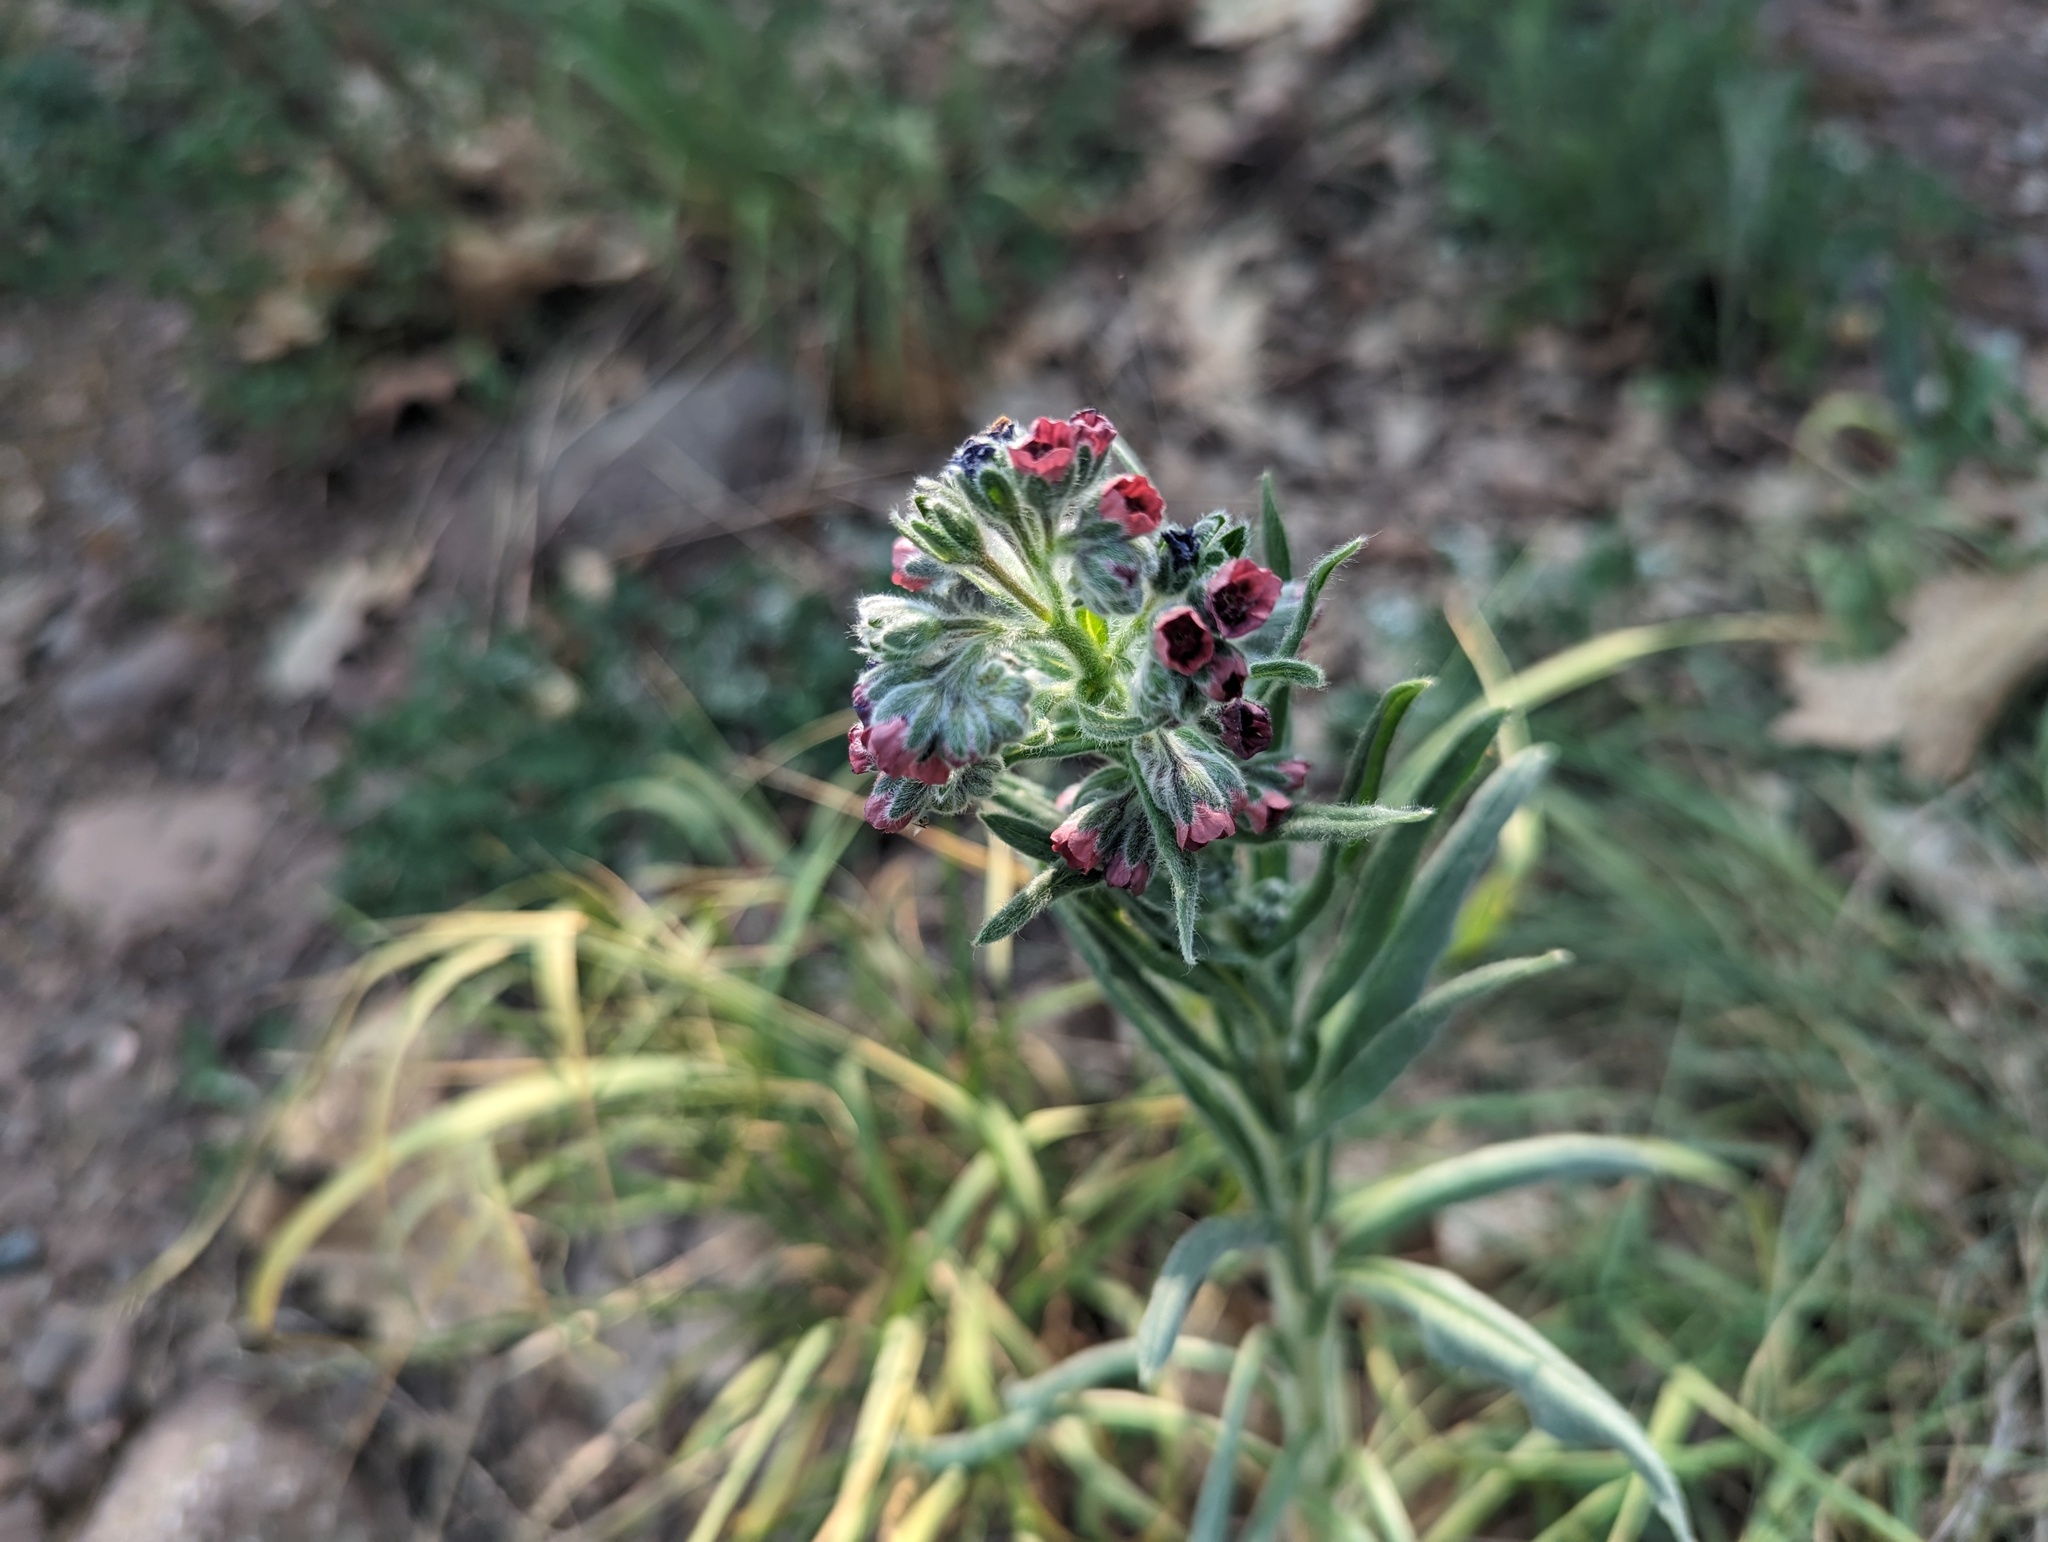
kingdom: Plantae
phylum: Tracheophyta
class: Magnoliopsida
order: Boraginales
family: Boraginaceae
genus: Cynoglossum
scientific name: Cynoglossum officinale
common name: Hound's-tongue
